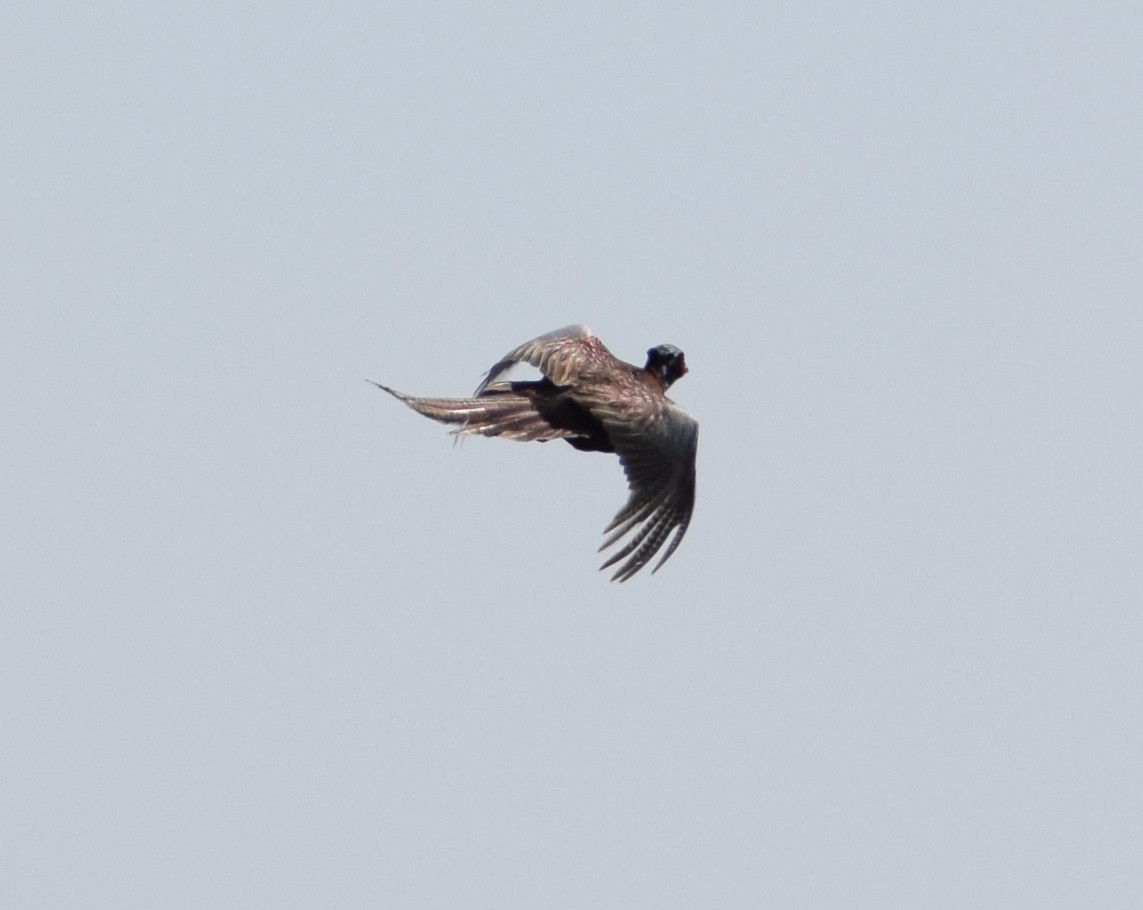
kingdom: Animalia
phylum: Chordata
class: Aves
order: Galliformes
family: Phasianidae
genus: Phasianus
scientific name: Phasianus colchicus
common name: Common pheasant
